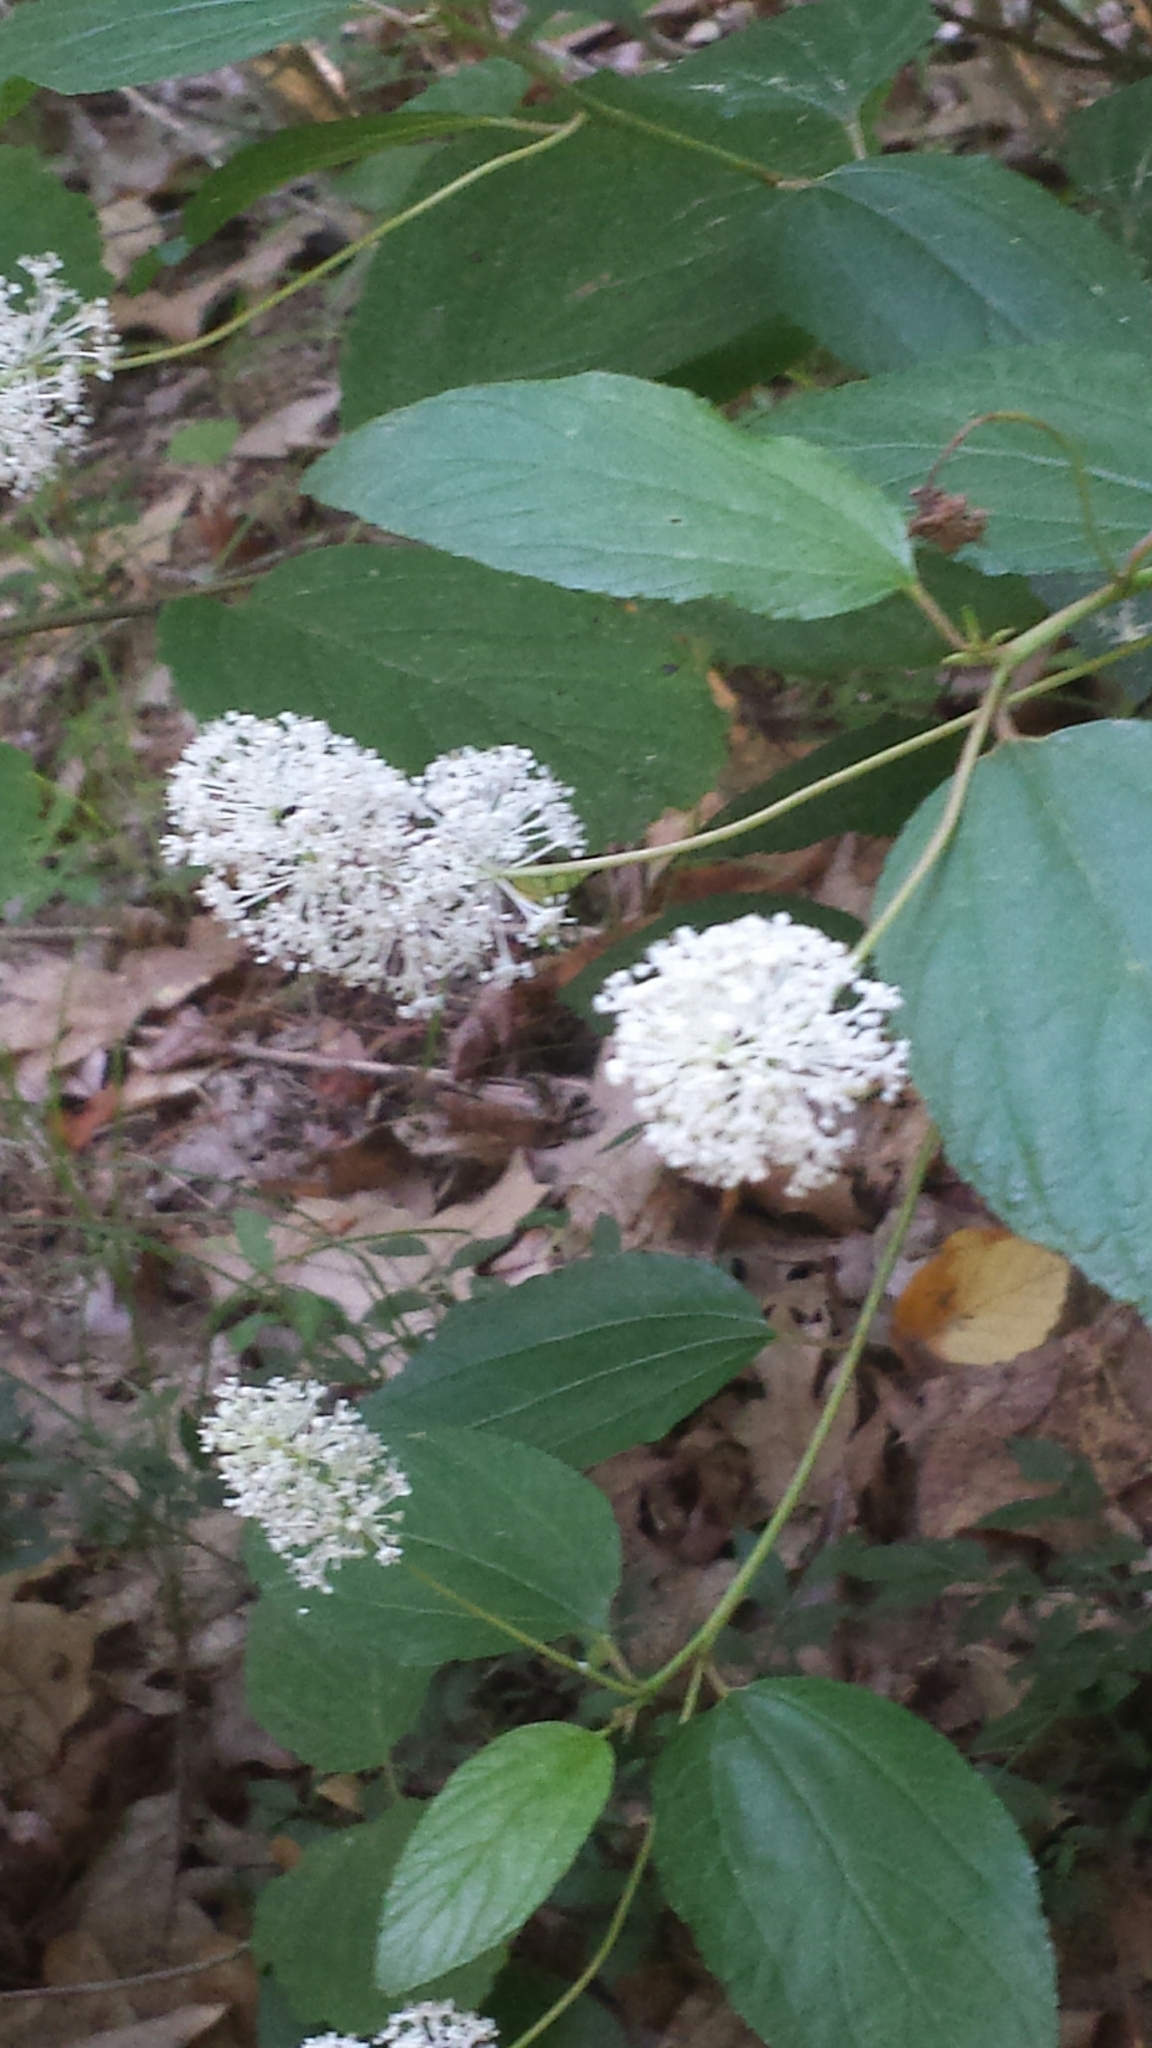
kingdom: Plantae
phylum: Tracheophyta
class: Magnoliopsida
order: Rosales
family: Rhamnaceae
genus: Ceanothus
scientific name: Ceanothus americanus
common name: Redroot
